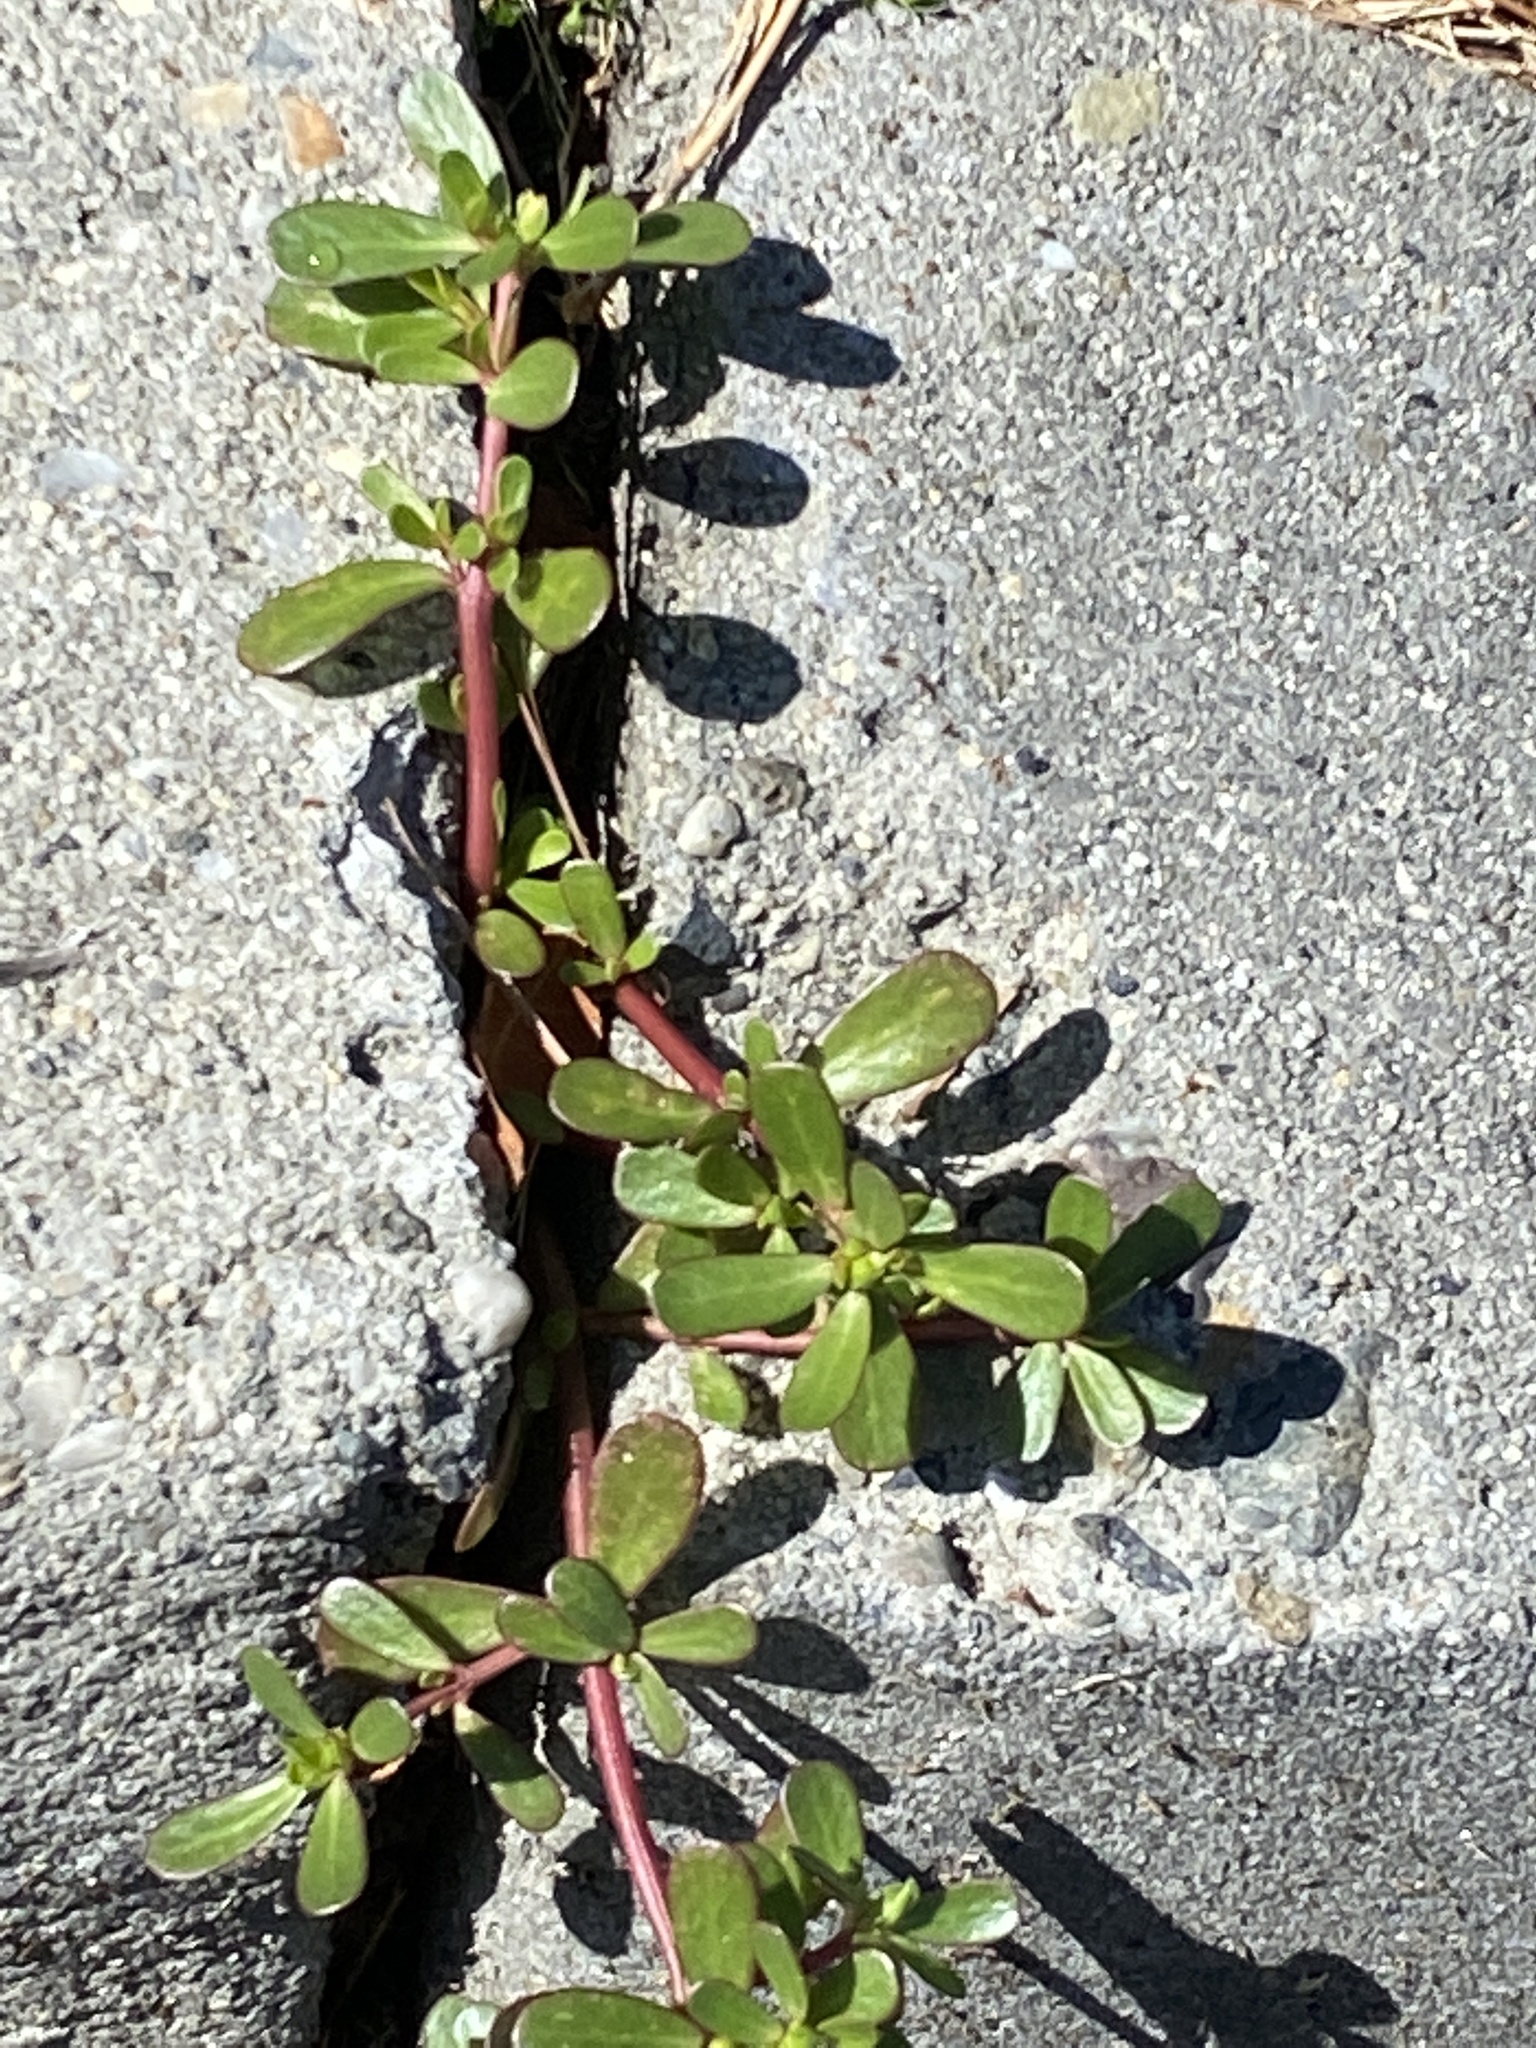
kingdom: Plantae
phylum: Tracheophyta
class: Magnoliopsida
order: Caryophyllales
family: Portulacaceae
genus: Portulaca
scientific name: Portulaca oleracea
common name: Common purslane
